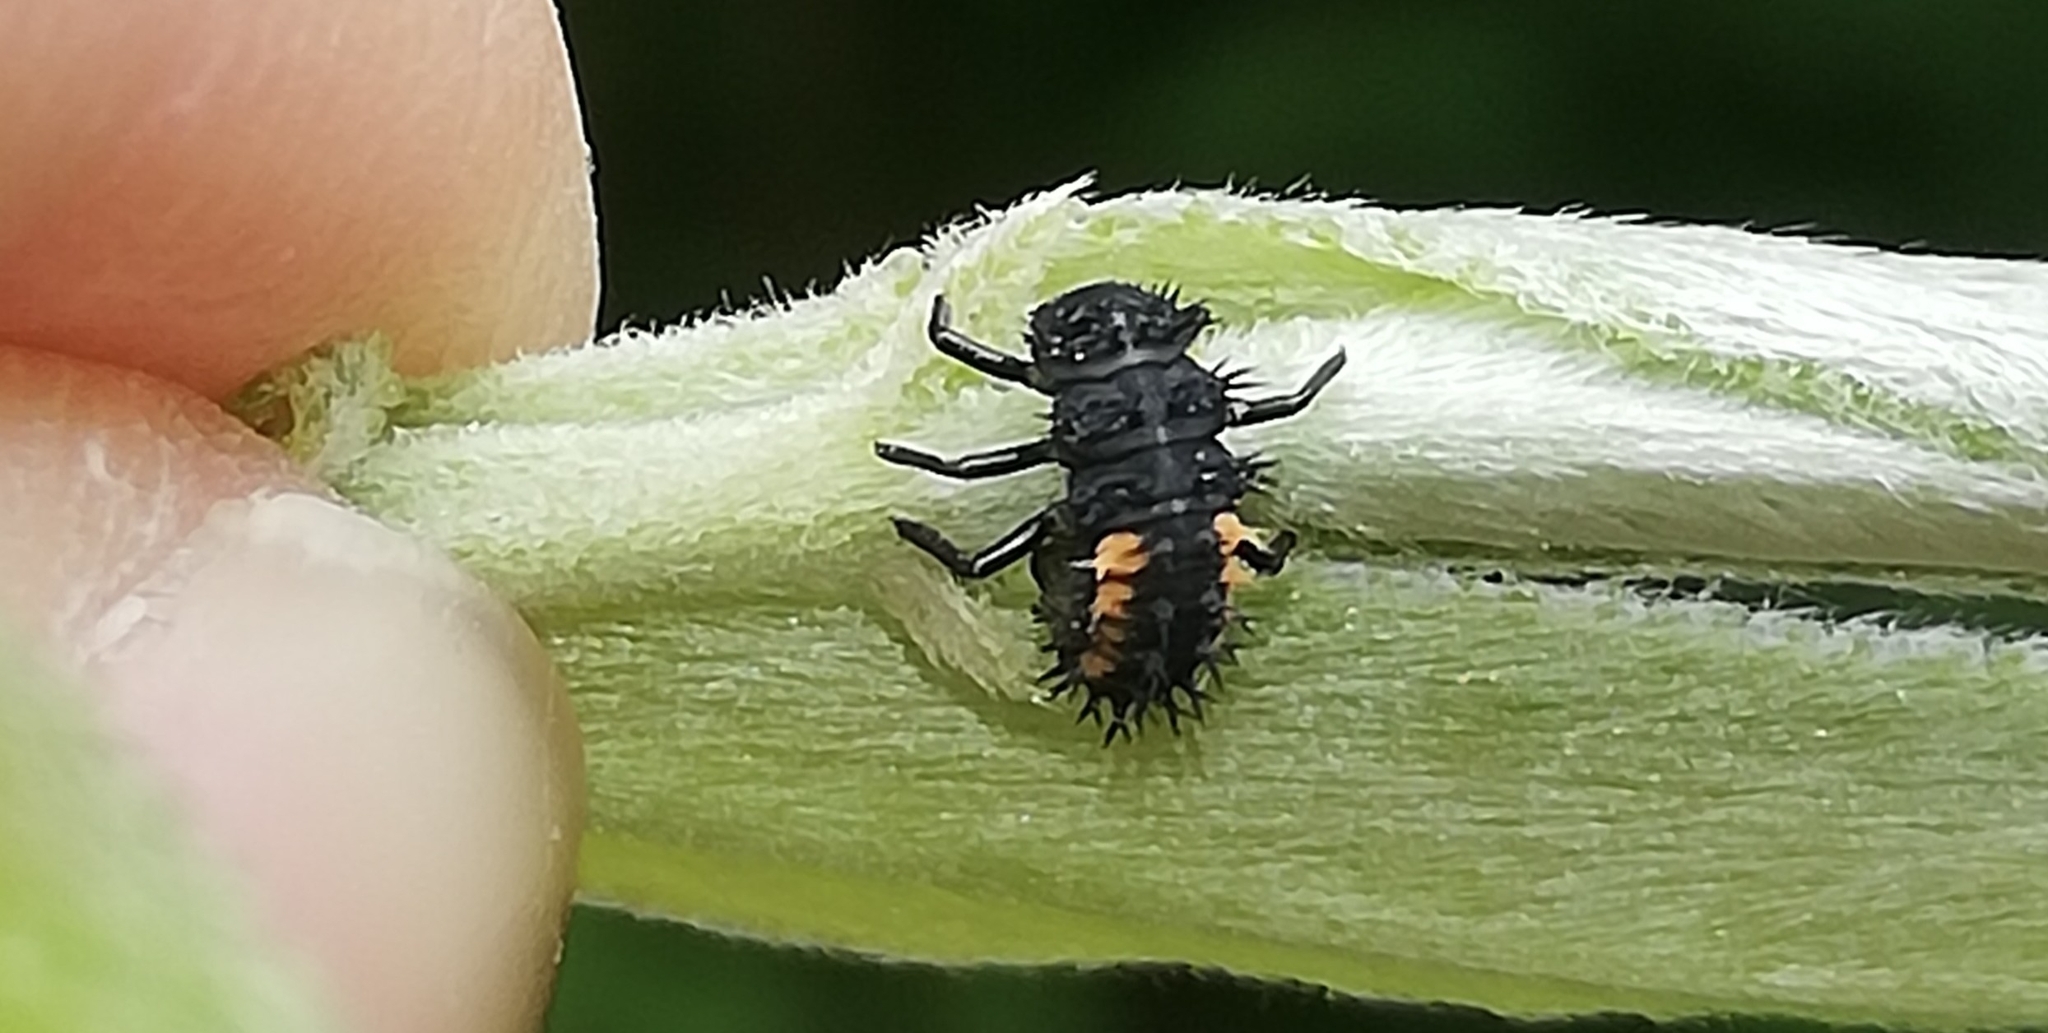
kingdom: Animalia
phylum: Arthropoda
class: Insecta
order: Coleoptera
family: Coccinellidae
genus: Harmonia
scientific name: Harmonia axyridis
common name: Harlequin ladybird
